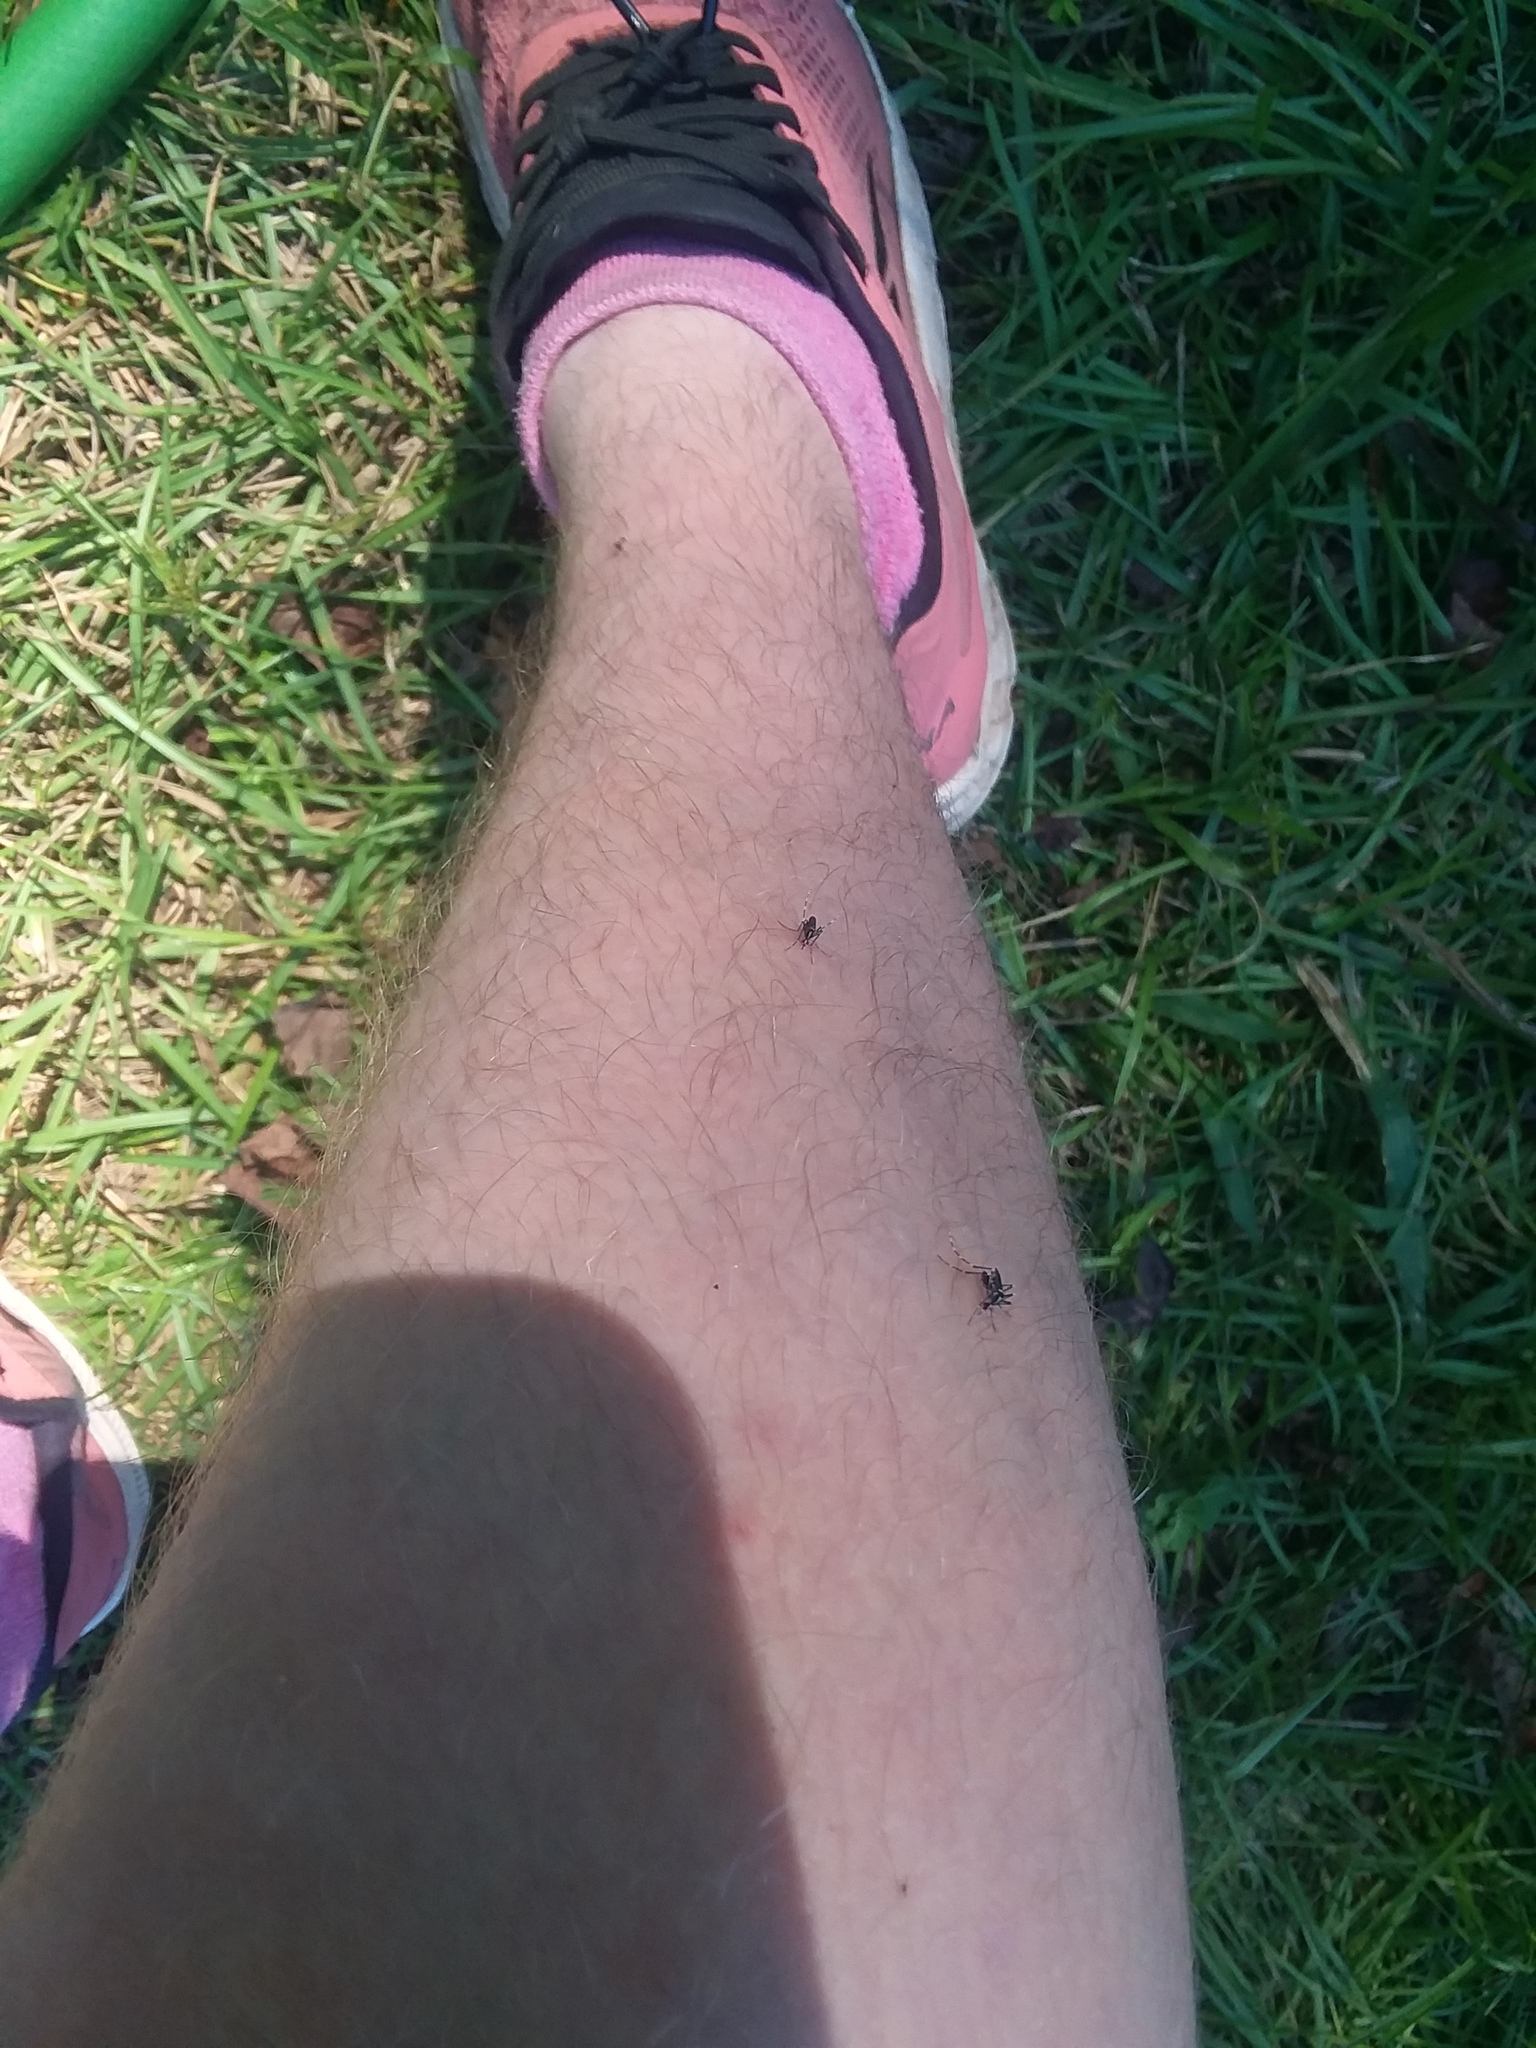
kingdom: Animalia
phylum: Arthropoda
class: Insecta
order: Diptera
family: Culicidae
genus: Aedes
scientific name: Aedes albopictus
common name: Tiger mosquito
